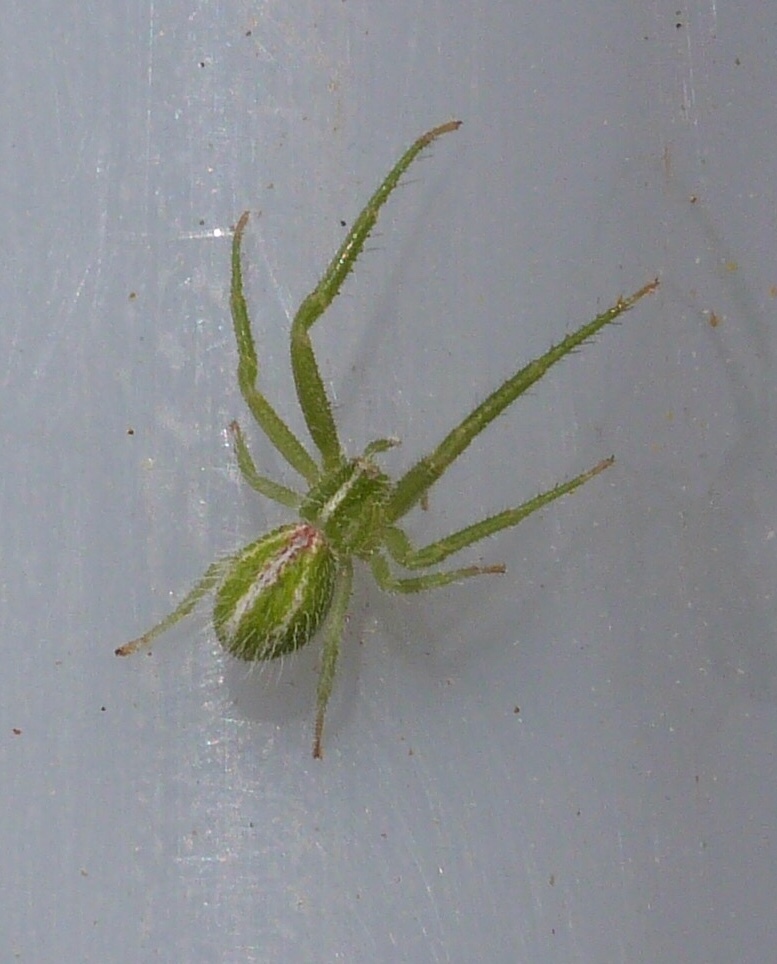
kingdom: Animalia
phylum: Arthropoda
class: Arachnida
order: Araneae
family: Thomisidae
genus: Heriaeus
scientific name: Heriaeus oblongus
